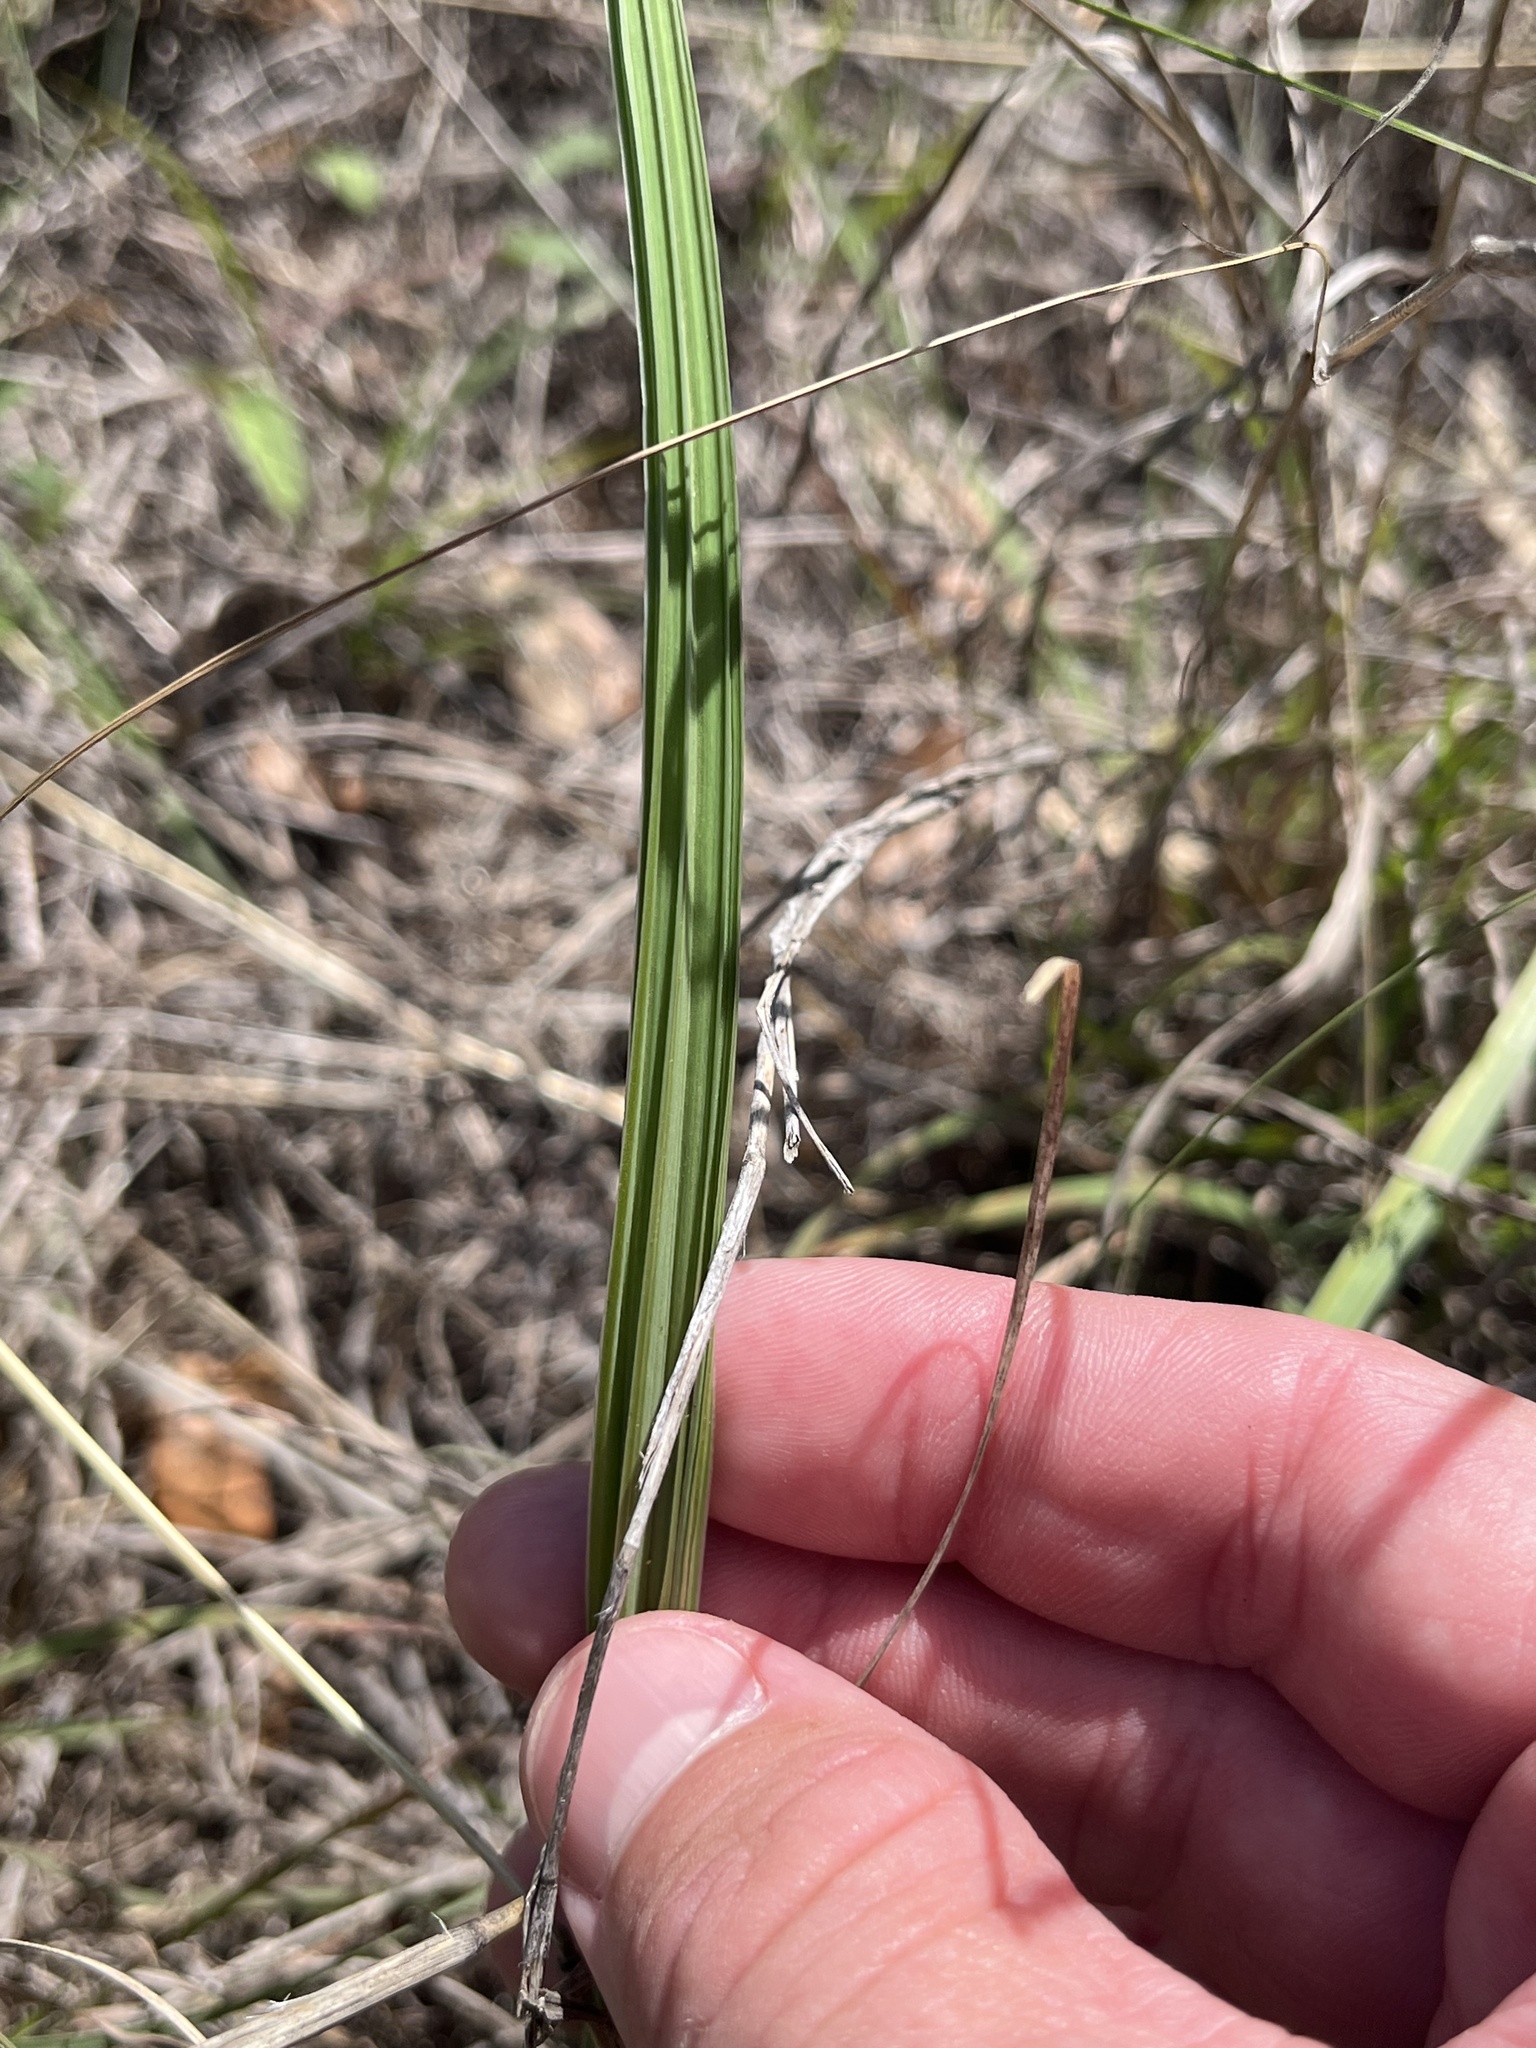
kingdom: Plantae
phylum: Tracheophyta
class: Liliopsida
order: Asparagales
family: Iridaceae
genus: Nemastylis
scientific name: Nemastylis geminiflora
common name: Prairie celestial
